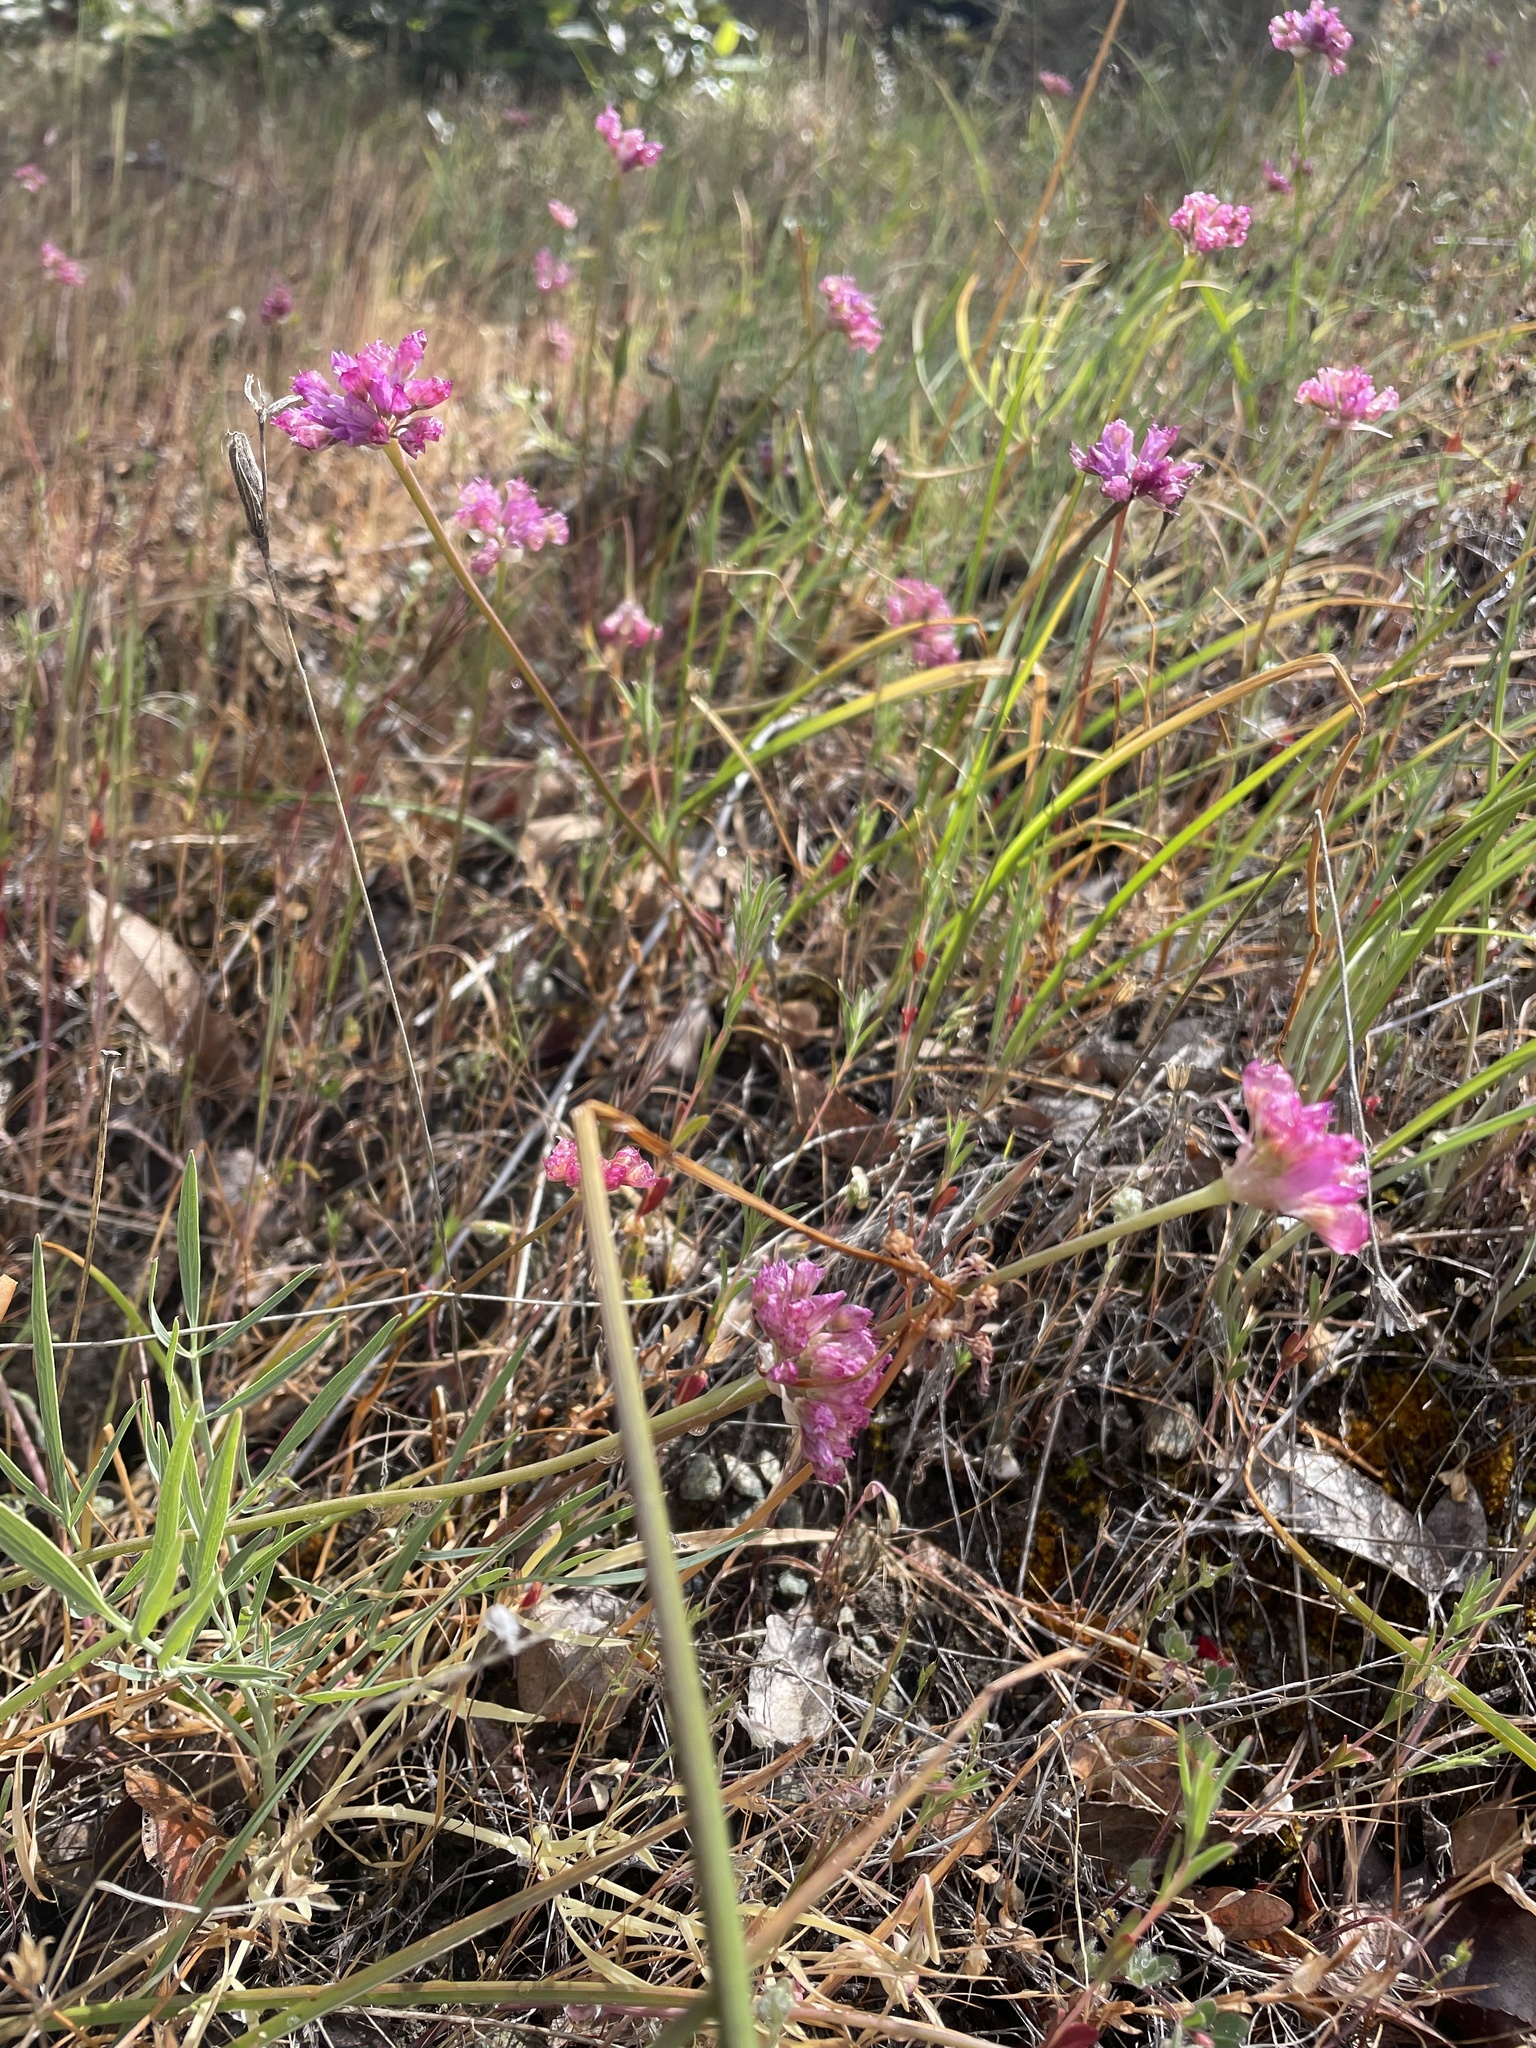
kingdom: Plantae
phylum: Tracheophyta
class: Liliopsida
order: Asparagales
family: Amaryllidaceae
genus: Allium
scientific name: Allium serra
